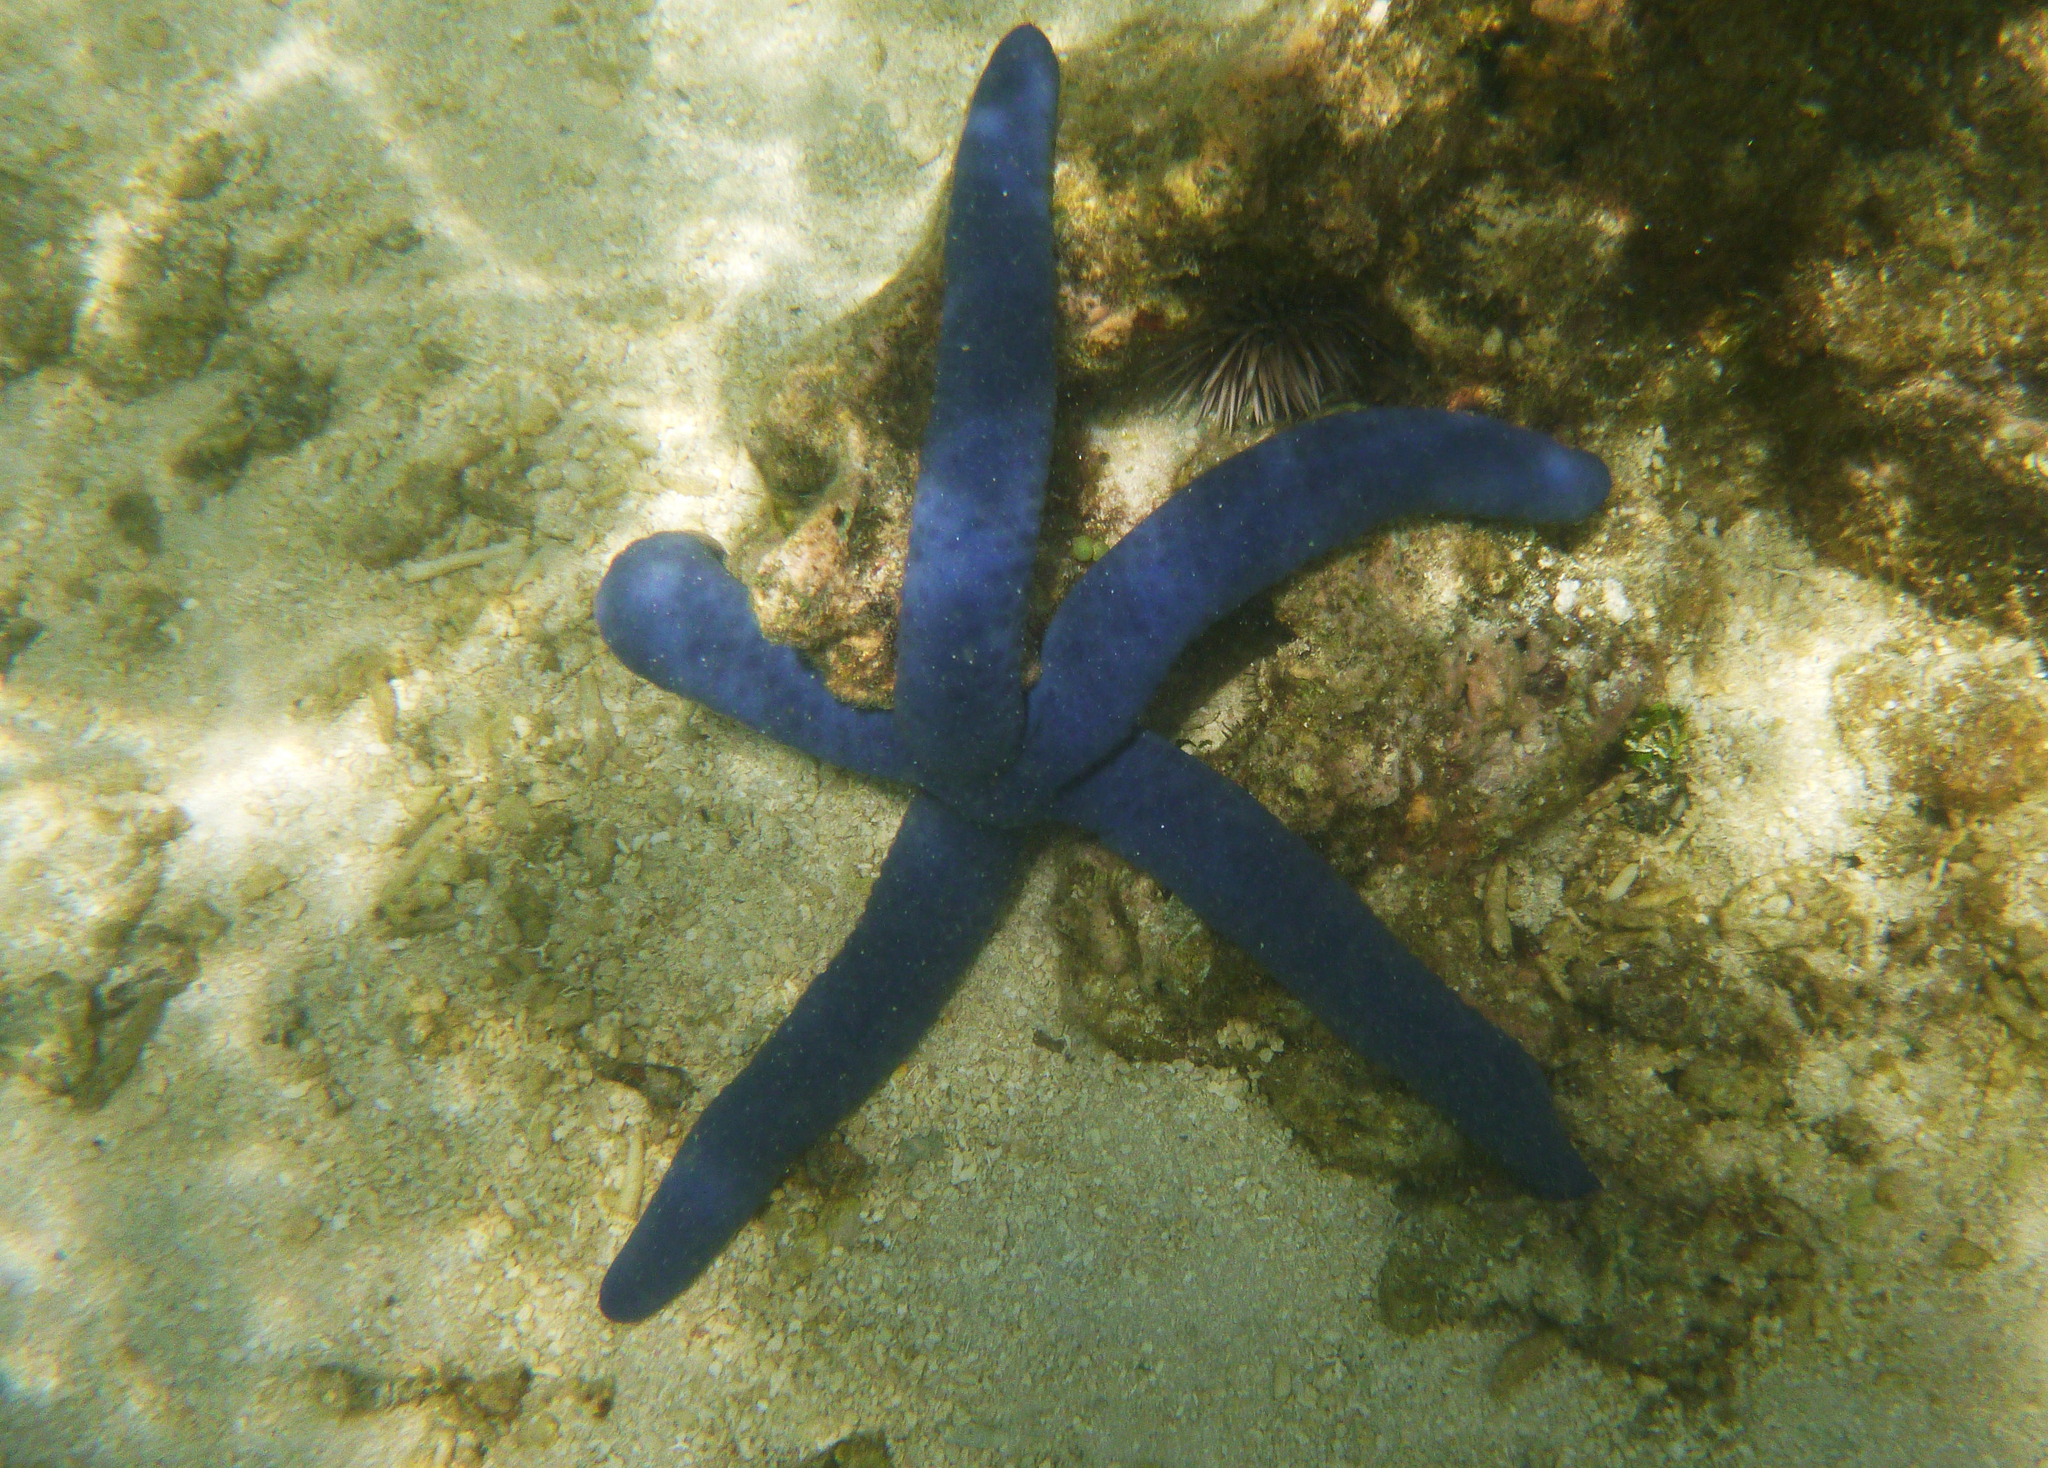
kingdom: Animalia
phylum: Echinodermata
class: Asteroidea
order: Valvatida
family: Ophidiasteridae
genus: Linckia
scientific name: Linckia laevigata
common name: Azure sea star
